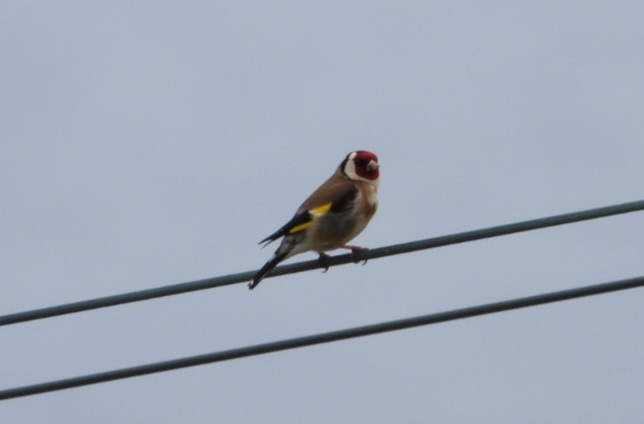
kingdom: Animalia
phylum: Chordata
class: Aves
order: Passeriformes
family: Fringillidae
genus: Carduelis
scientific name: Carduelis carduelis
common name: European goldfinch
